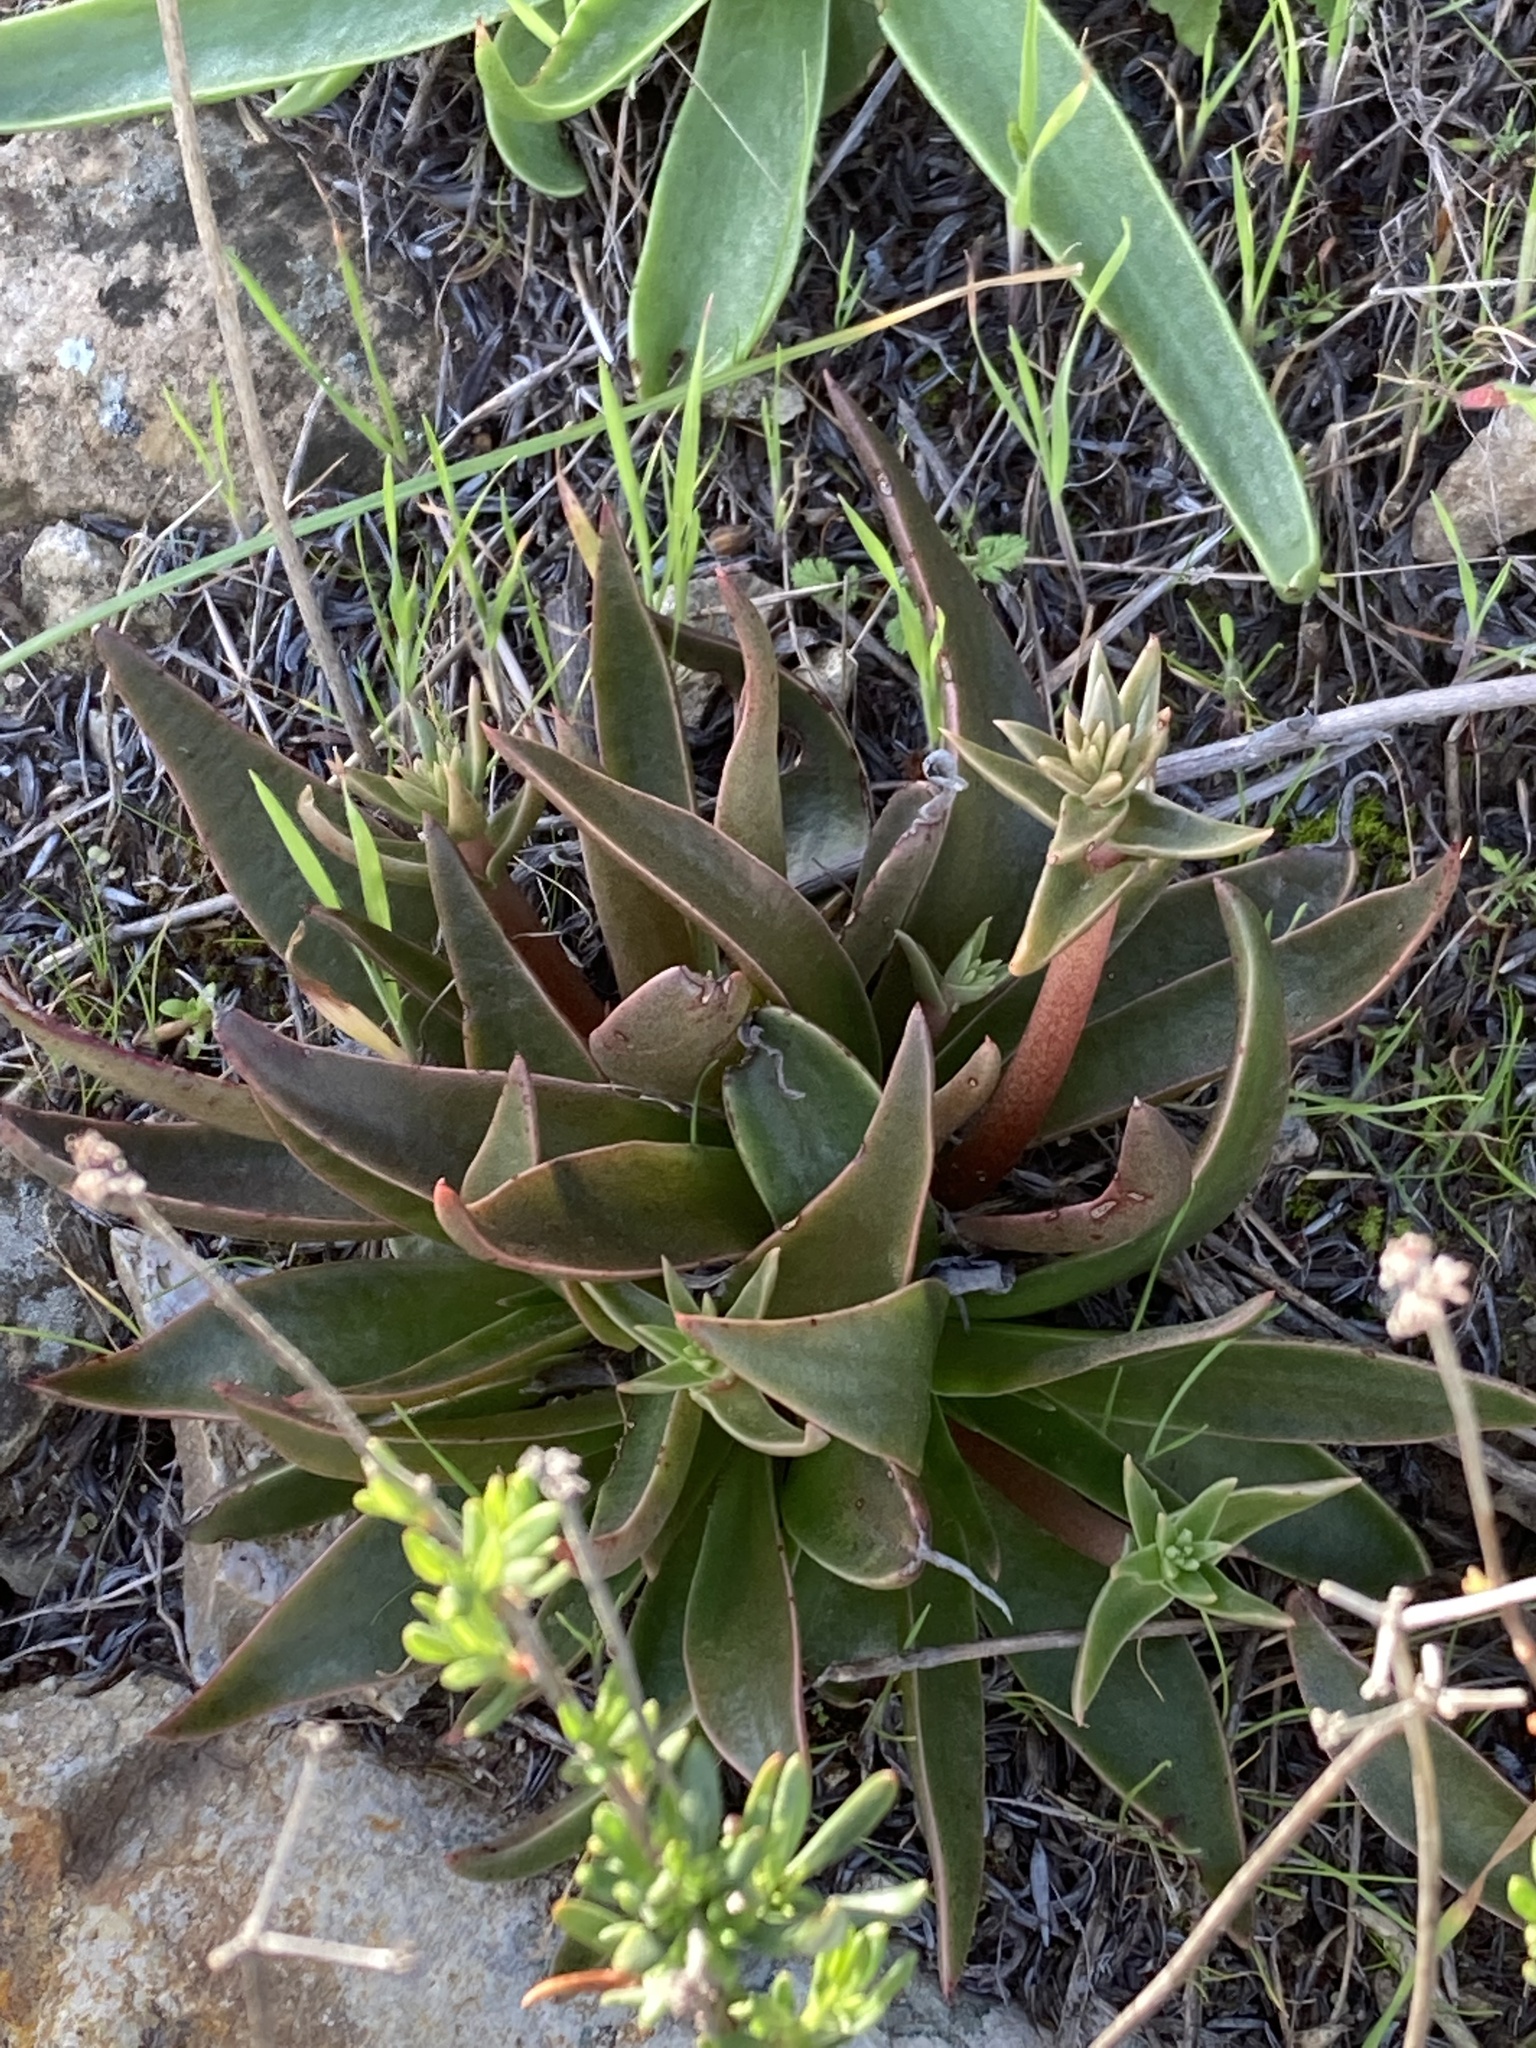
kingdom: Plantae
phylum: Tracheophyta
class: Magnoliopsida
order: Saxifragales
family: Crassulaceae
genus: Dudleya
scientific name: Dudleya lanceolata
